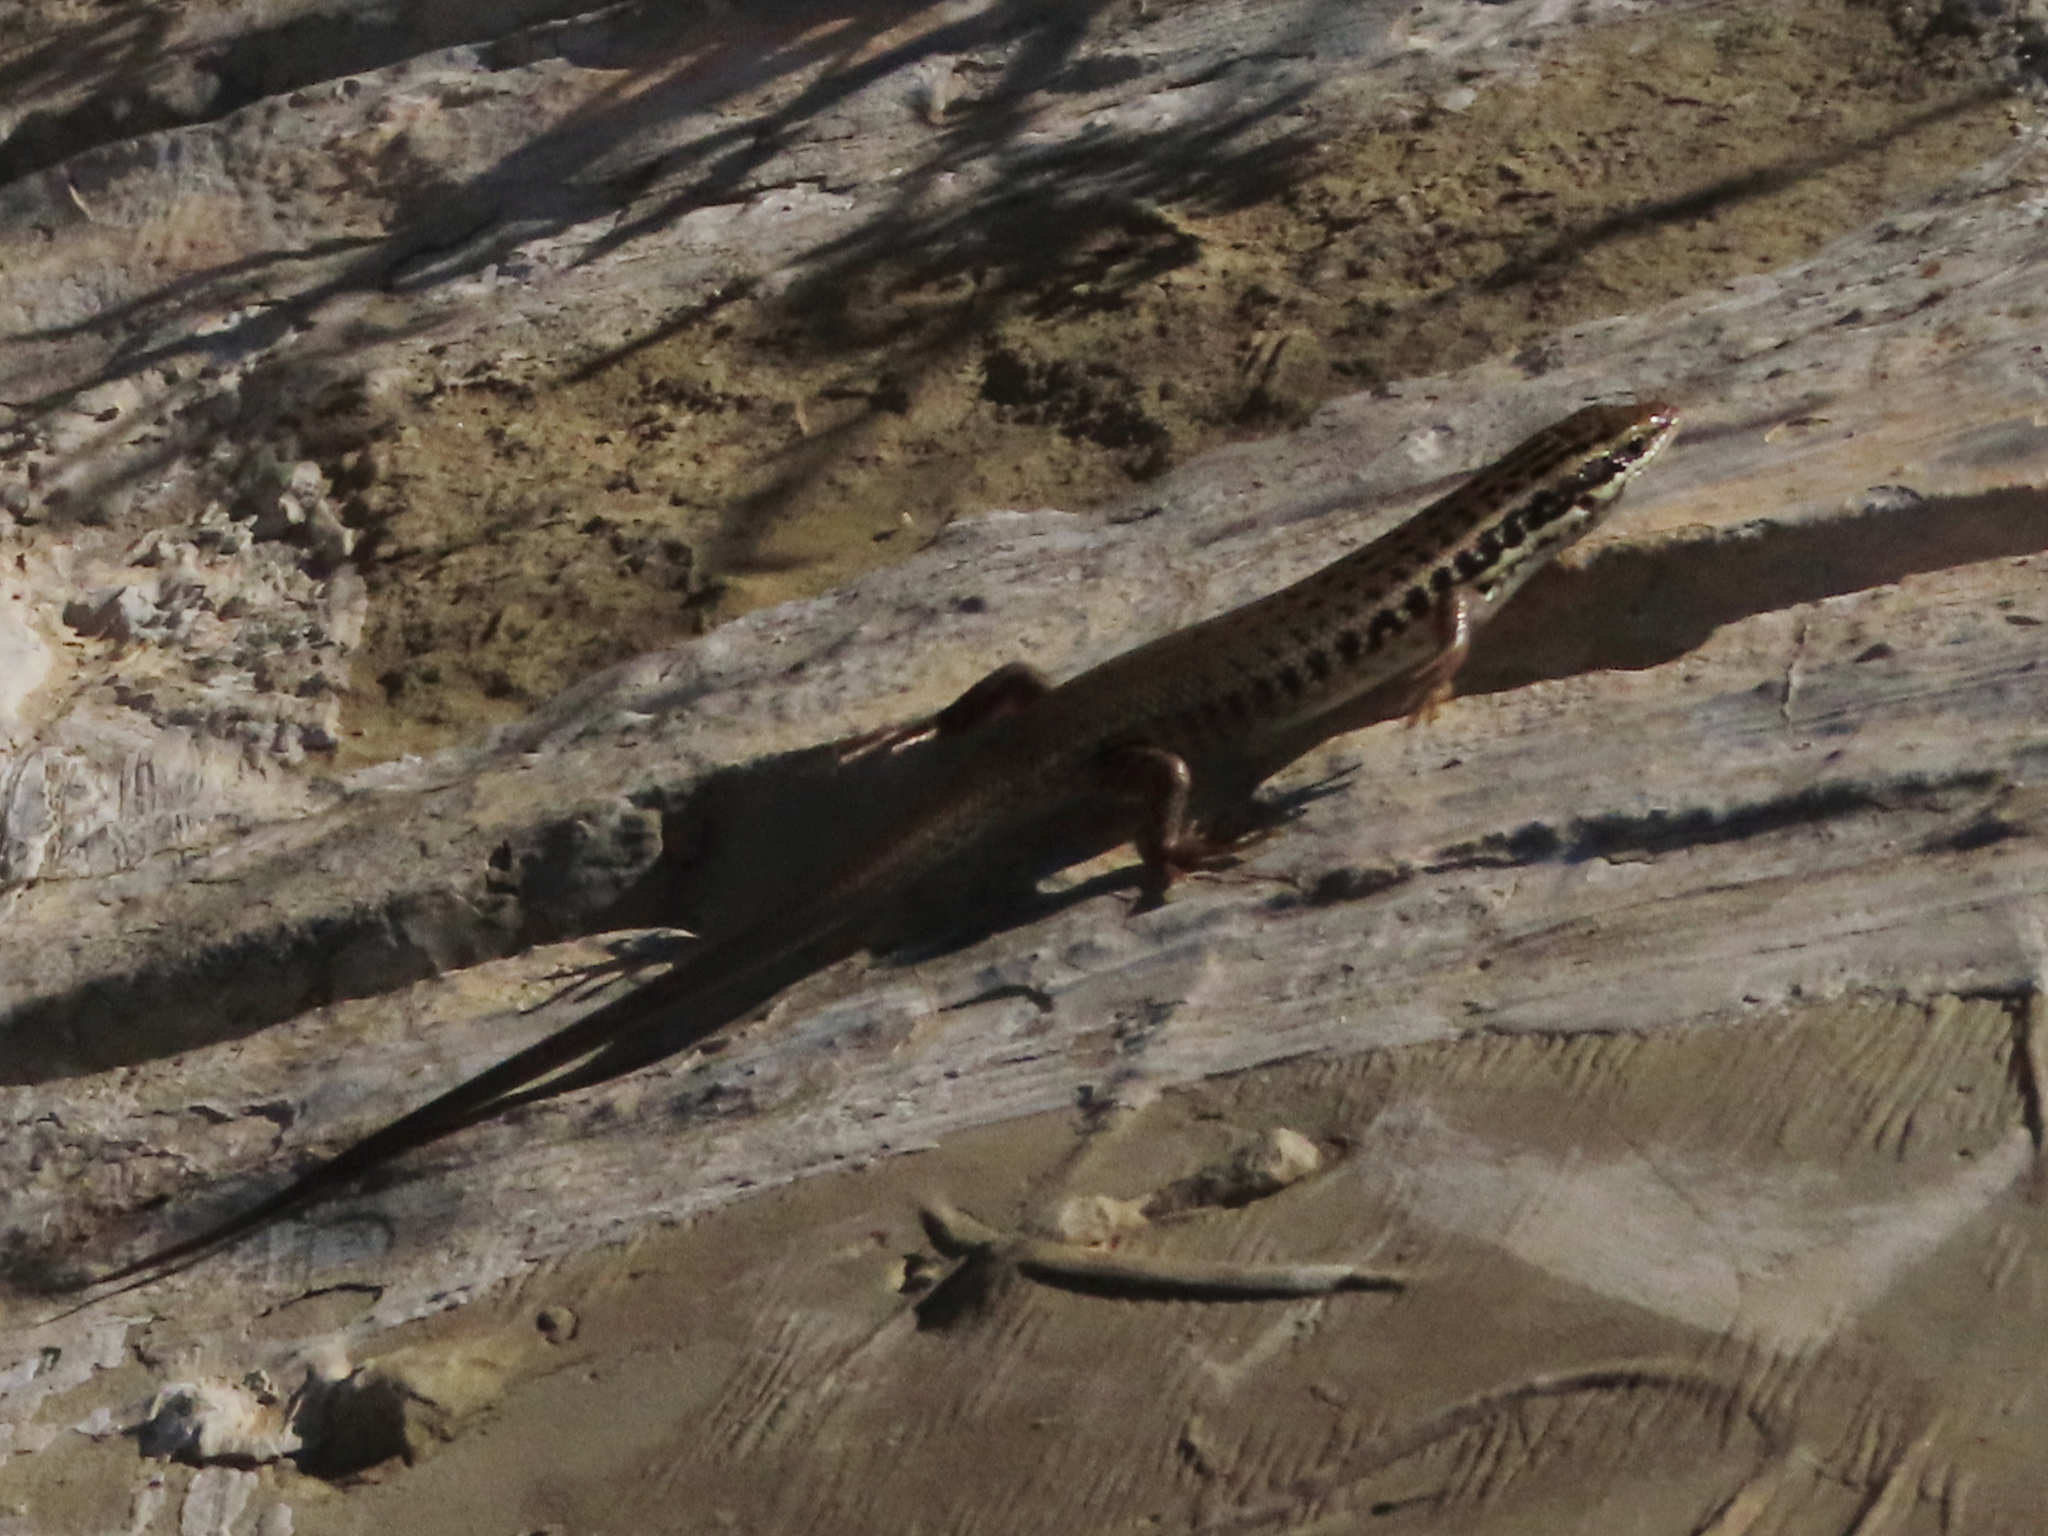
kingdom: Animalia
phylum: Chordata
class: Squamata
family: Scincidae
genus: Heremites
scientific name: Heremites septemtaeniatus
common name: Golden grass mabuya
